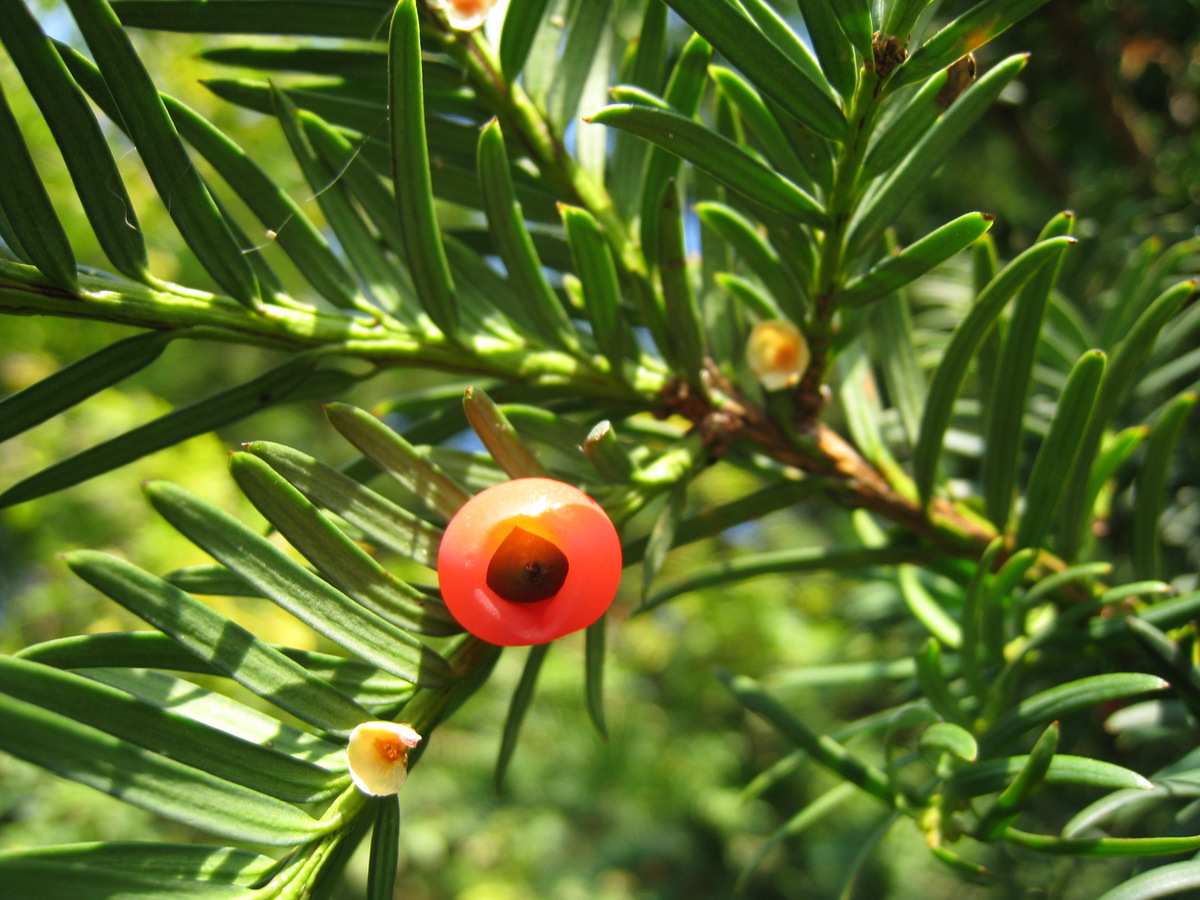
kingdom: Plantae
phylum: Tracheophyta
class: Pinopsida
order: Pinales
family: Taxaceae
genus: Taxus
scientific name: Taxus baccata
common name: Yew
